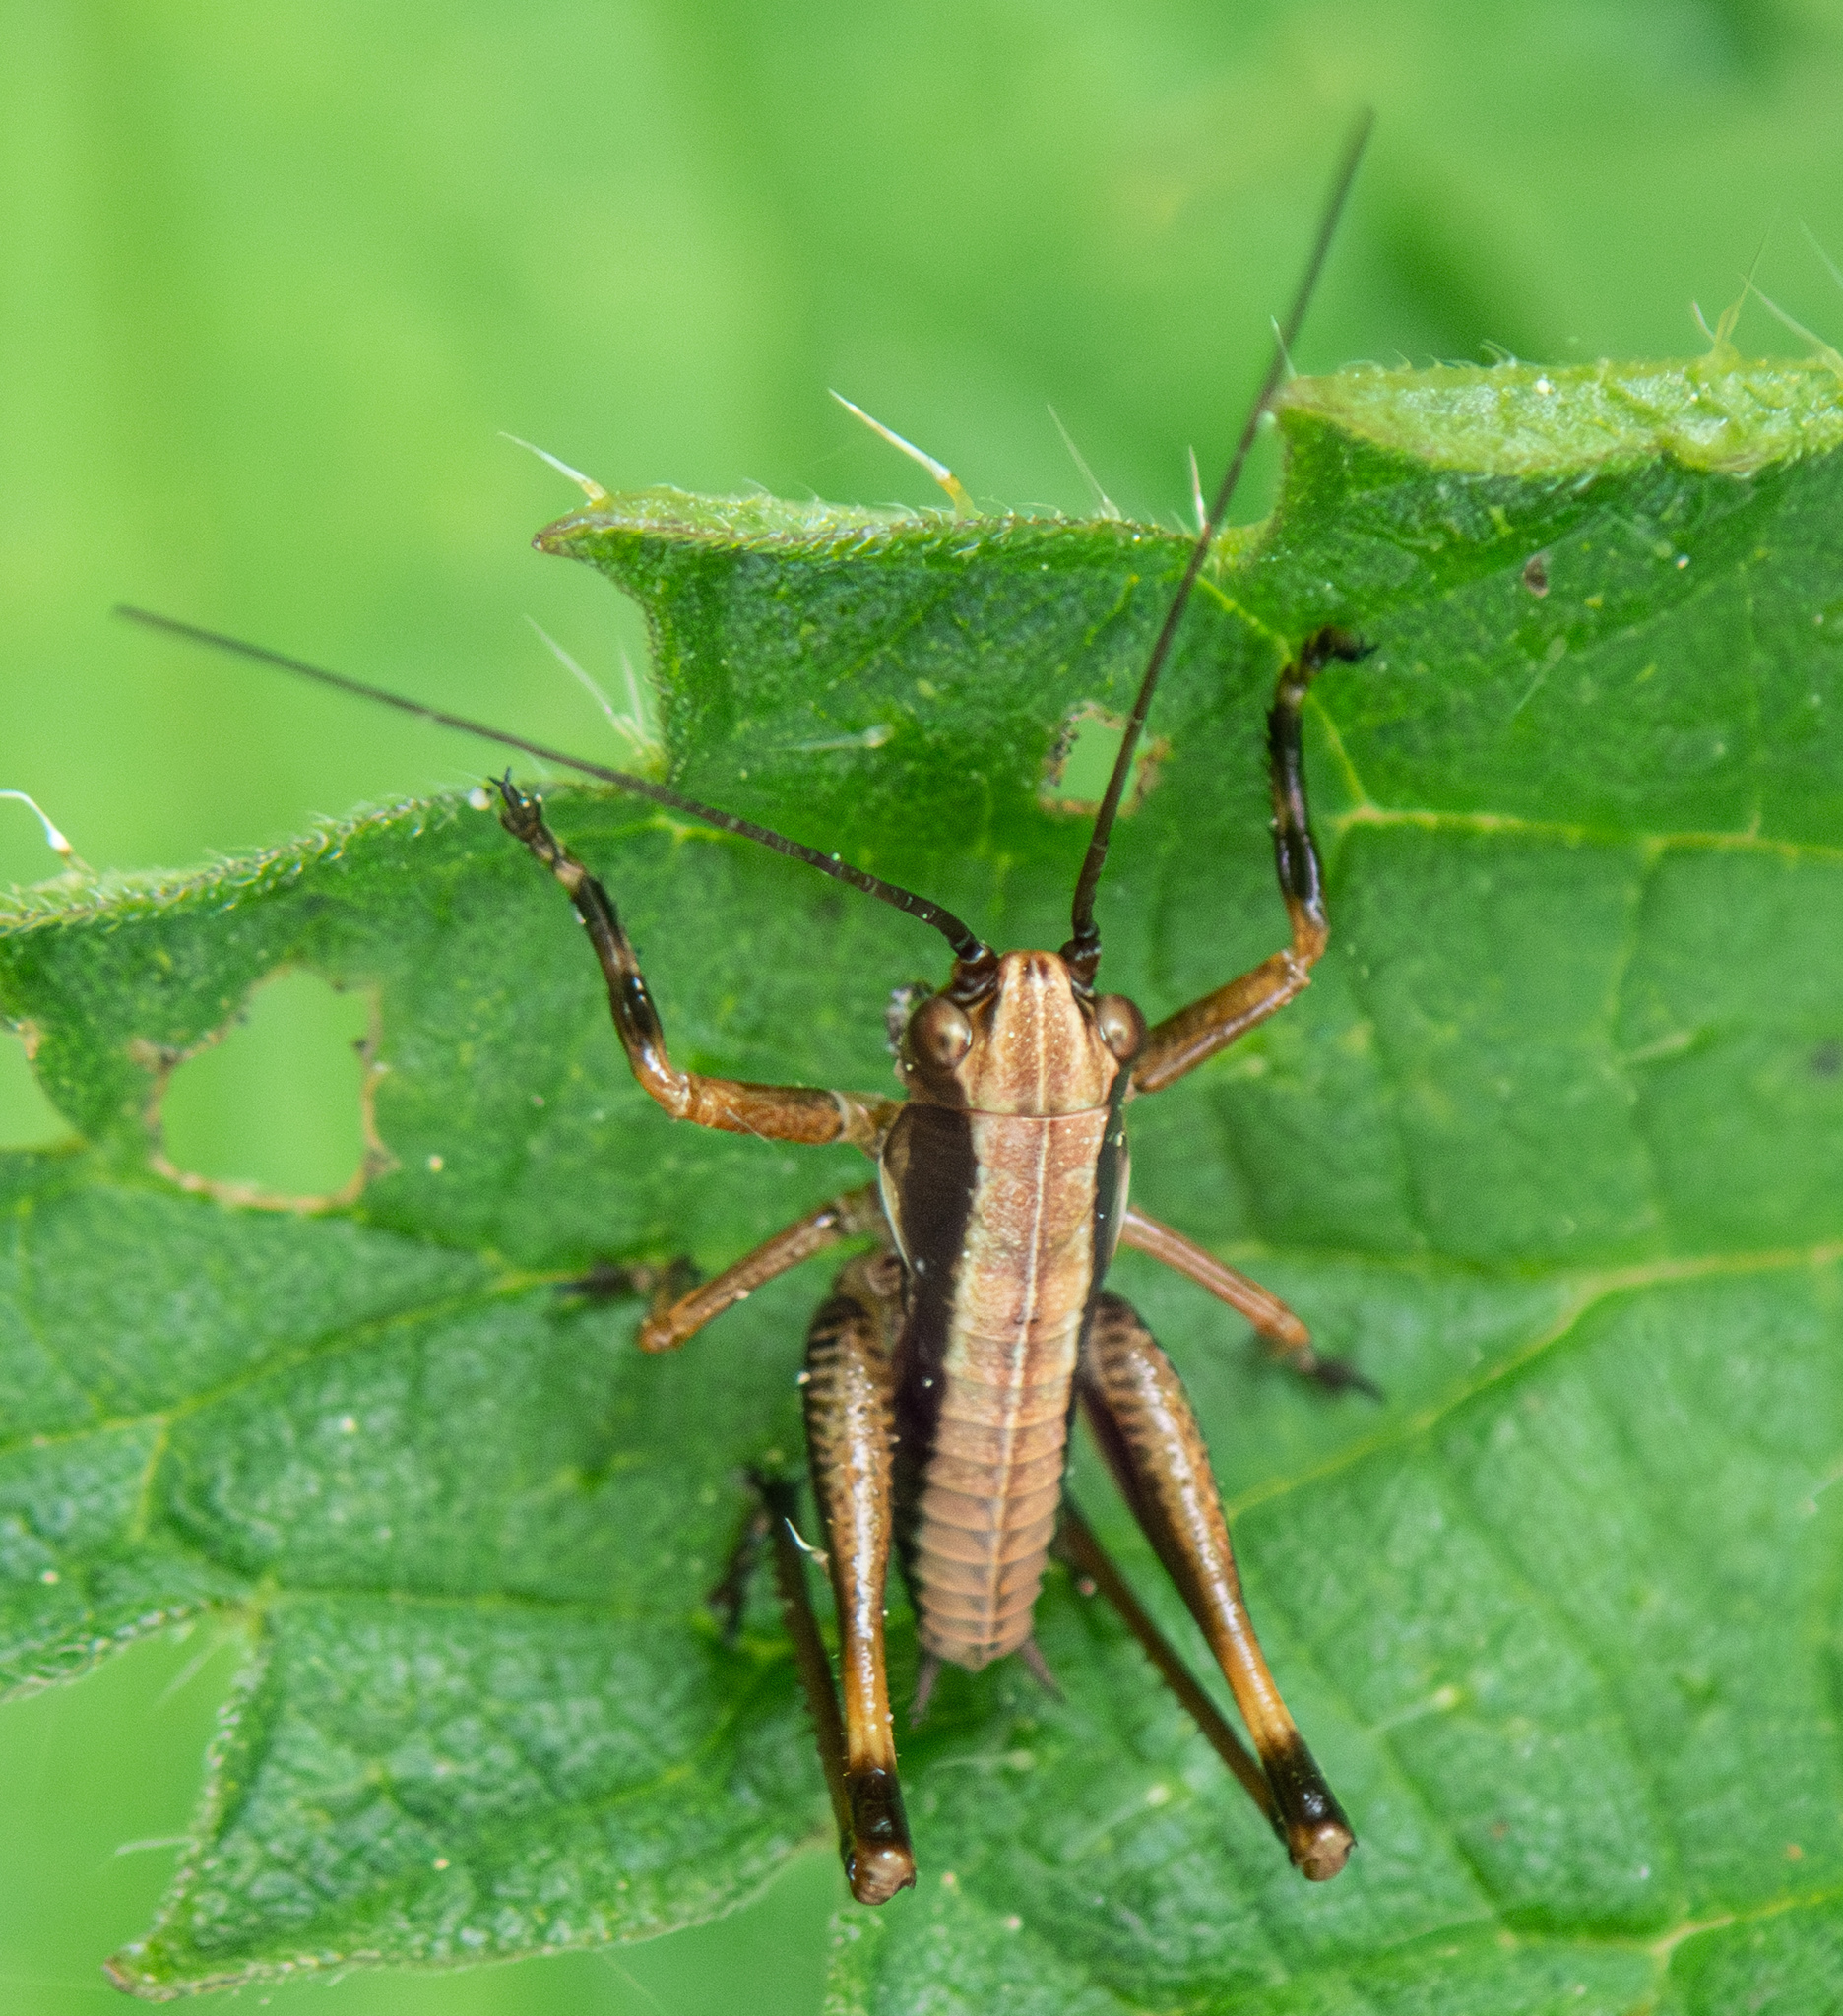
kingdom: Animalia
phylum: Arthropoda
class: Insecta
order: Orthoptera
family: Tettigoniidae
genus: Pholidoptera
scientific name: Pholidoptera griseoaptera
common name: Dark bush-cricket
